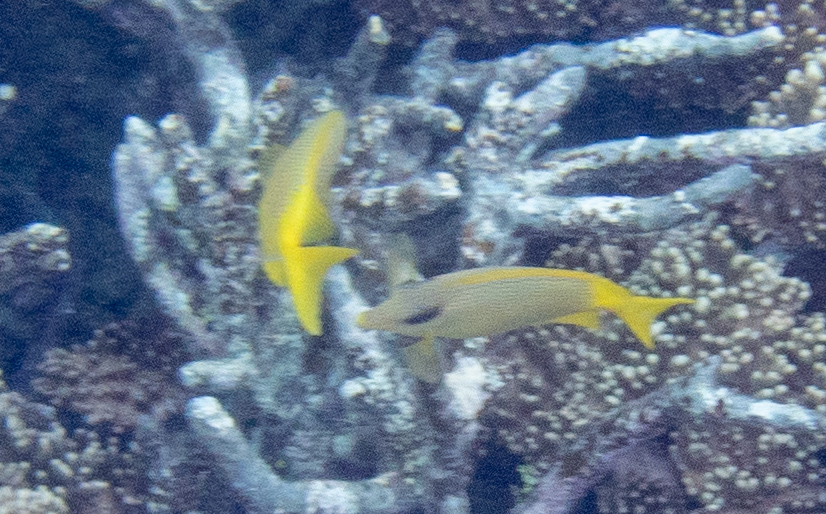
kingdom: Animalia
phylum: Chordata
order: Perciformes
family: Siganidae
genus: Siganus
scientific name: Siganus corallinus
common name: Coral rabbitfish
